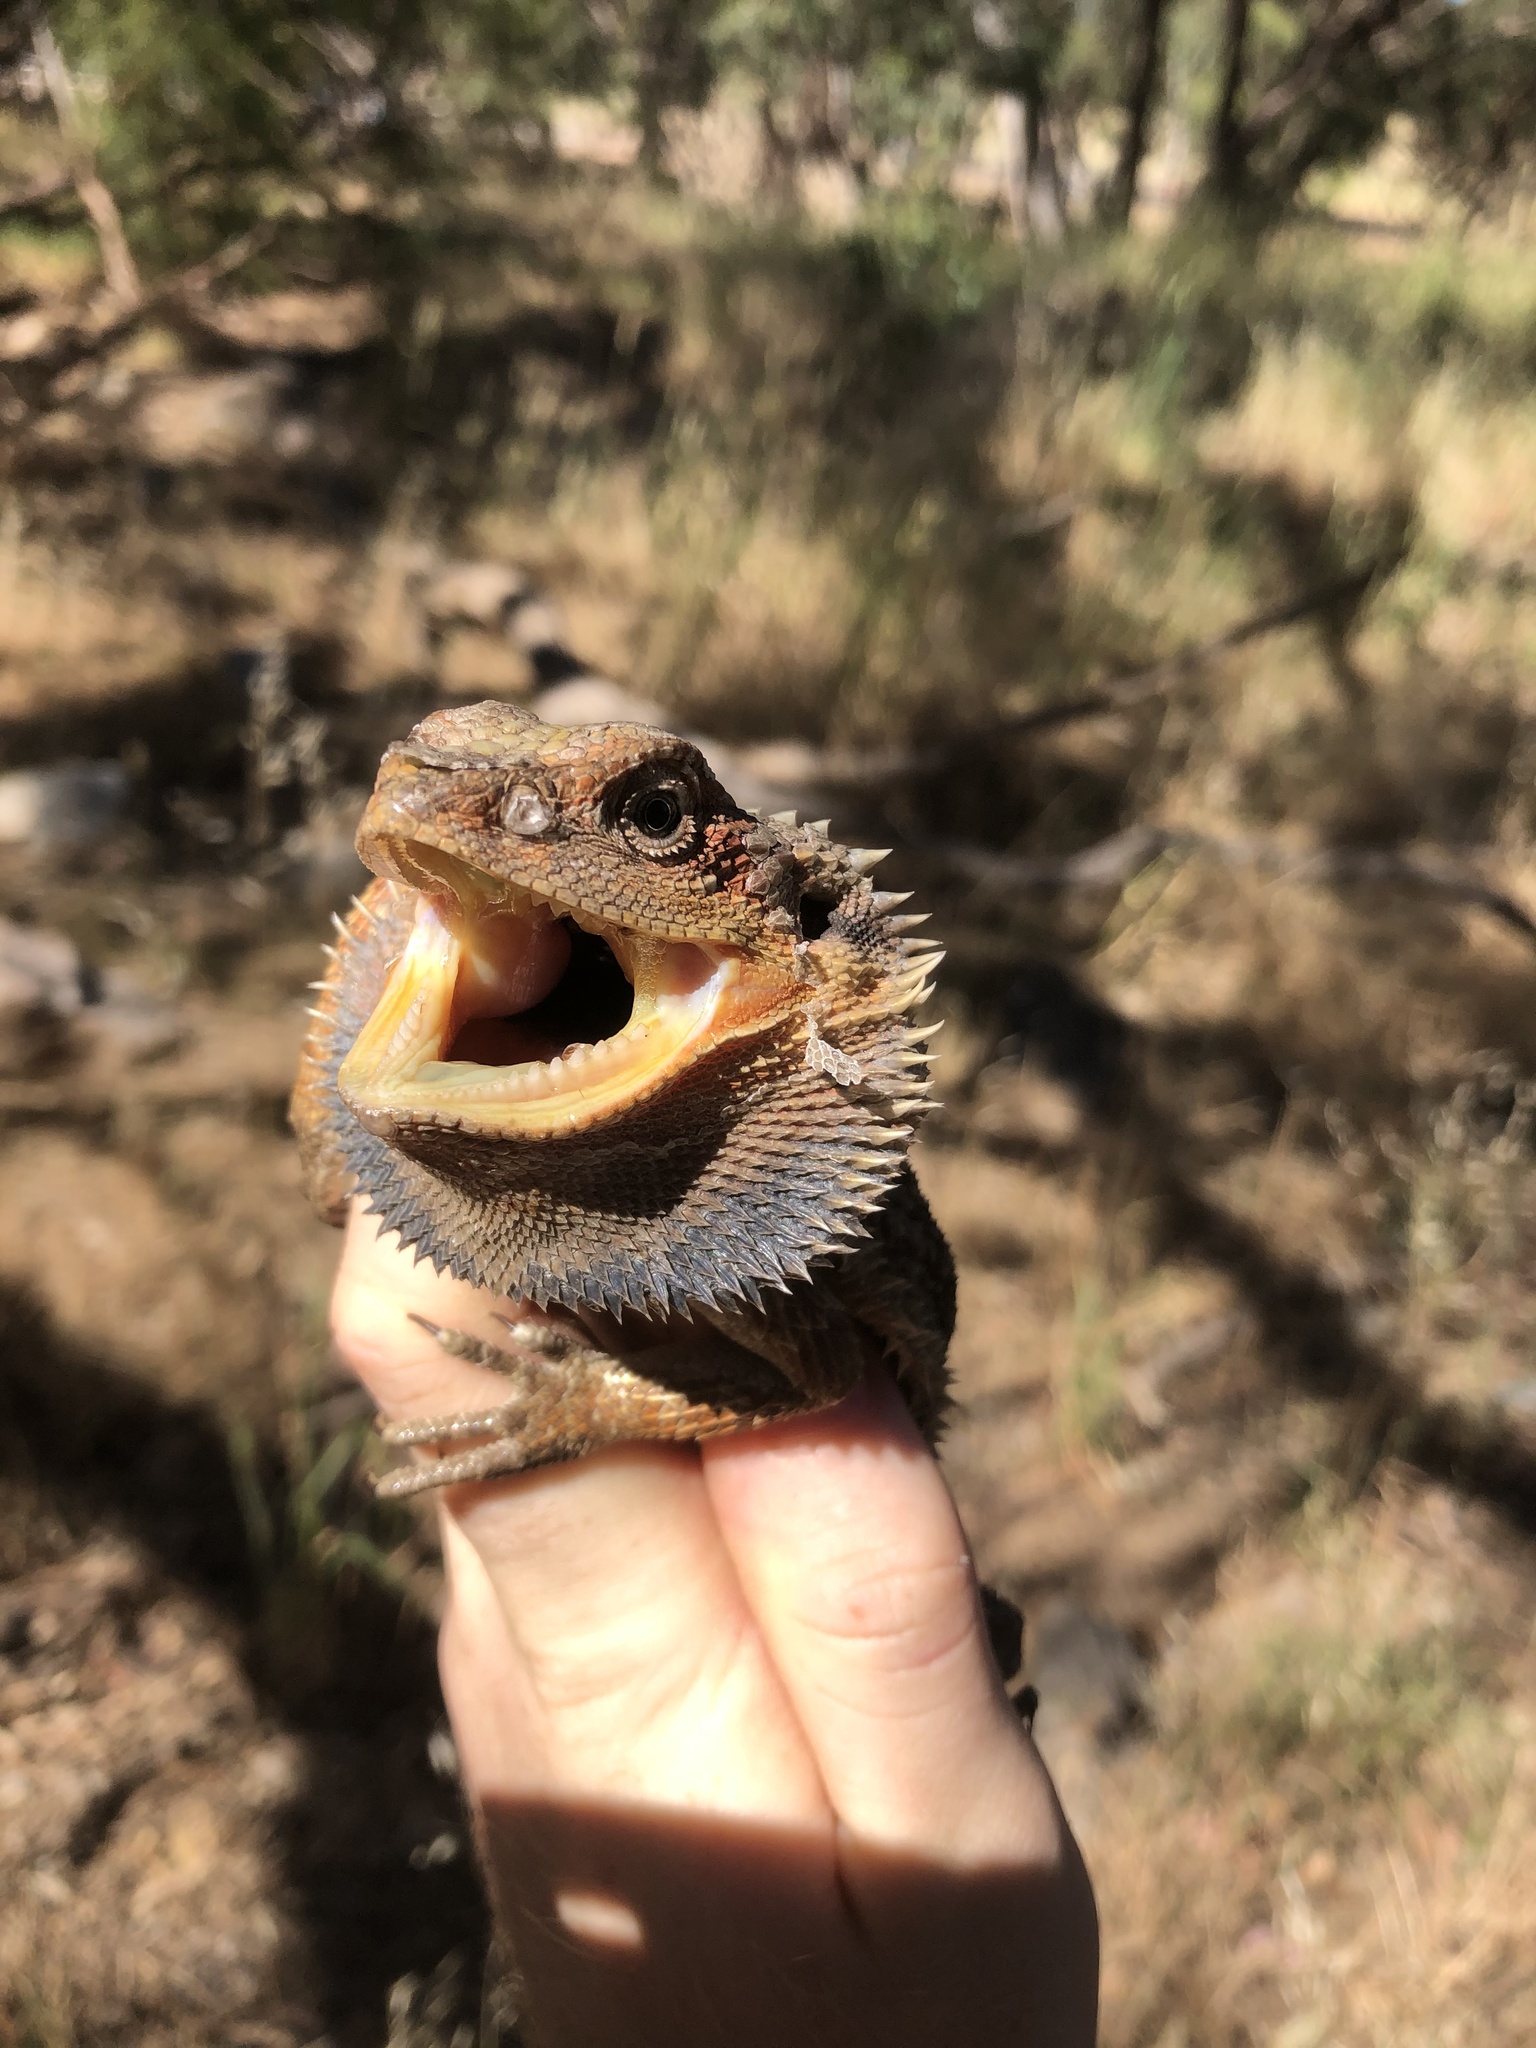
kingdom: Animalia
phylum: Chordata
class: Squamata
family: Agamidae
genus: Pogona
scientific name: Pogona barbata
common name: Bearded dragon
